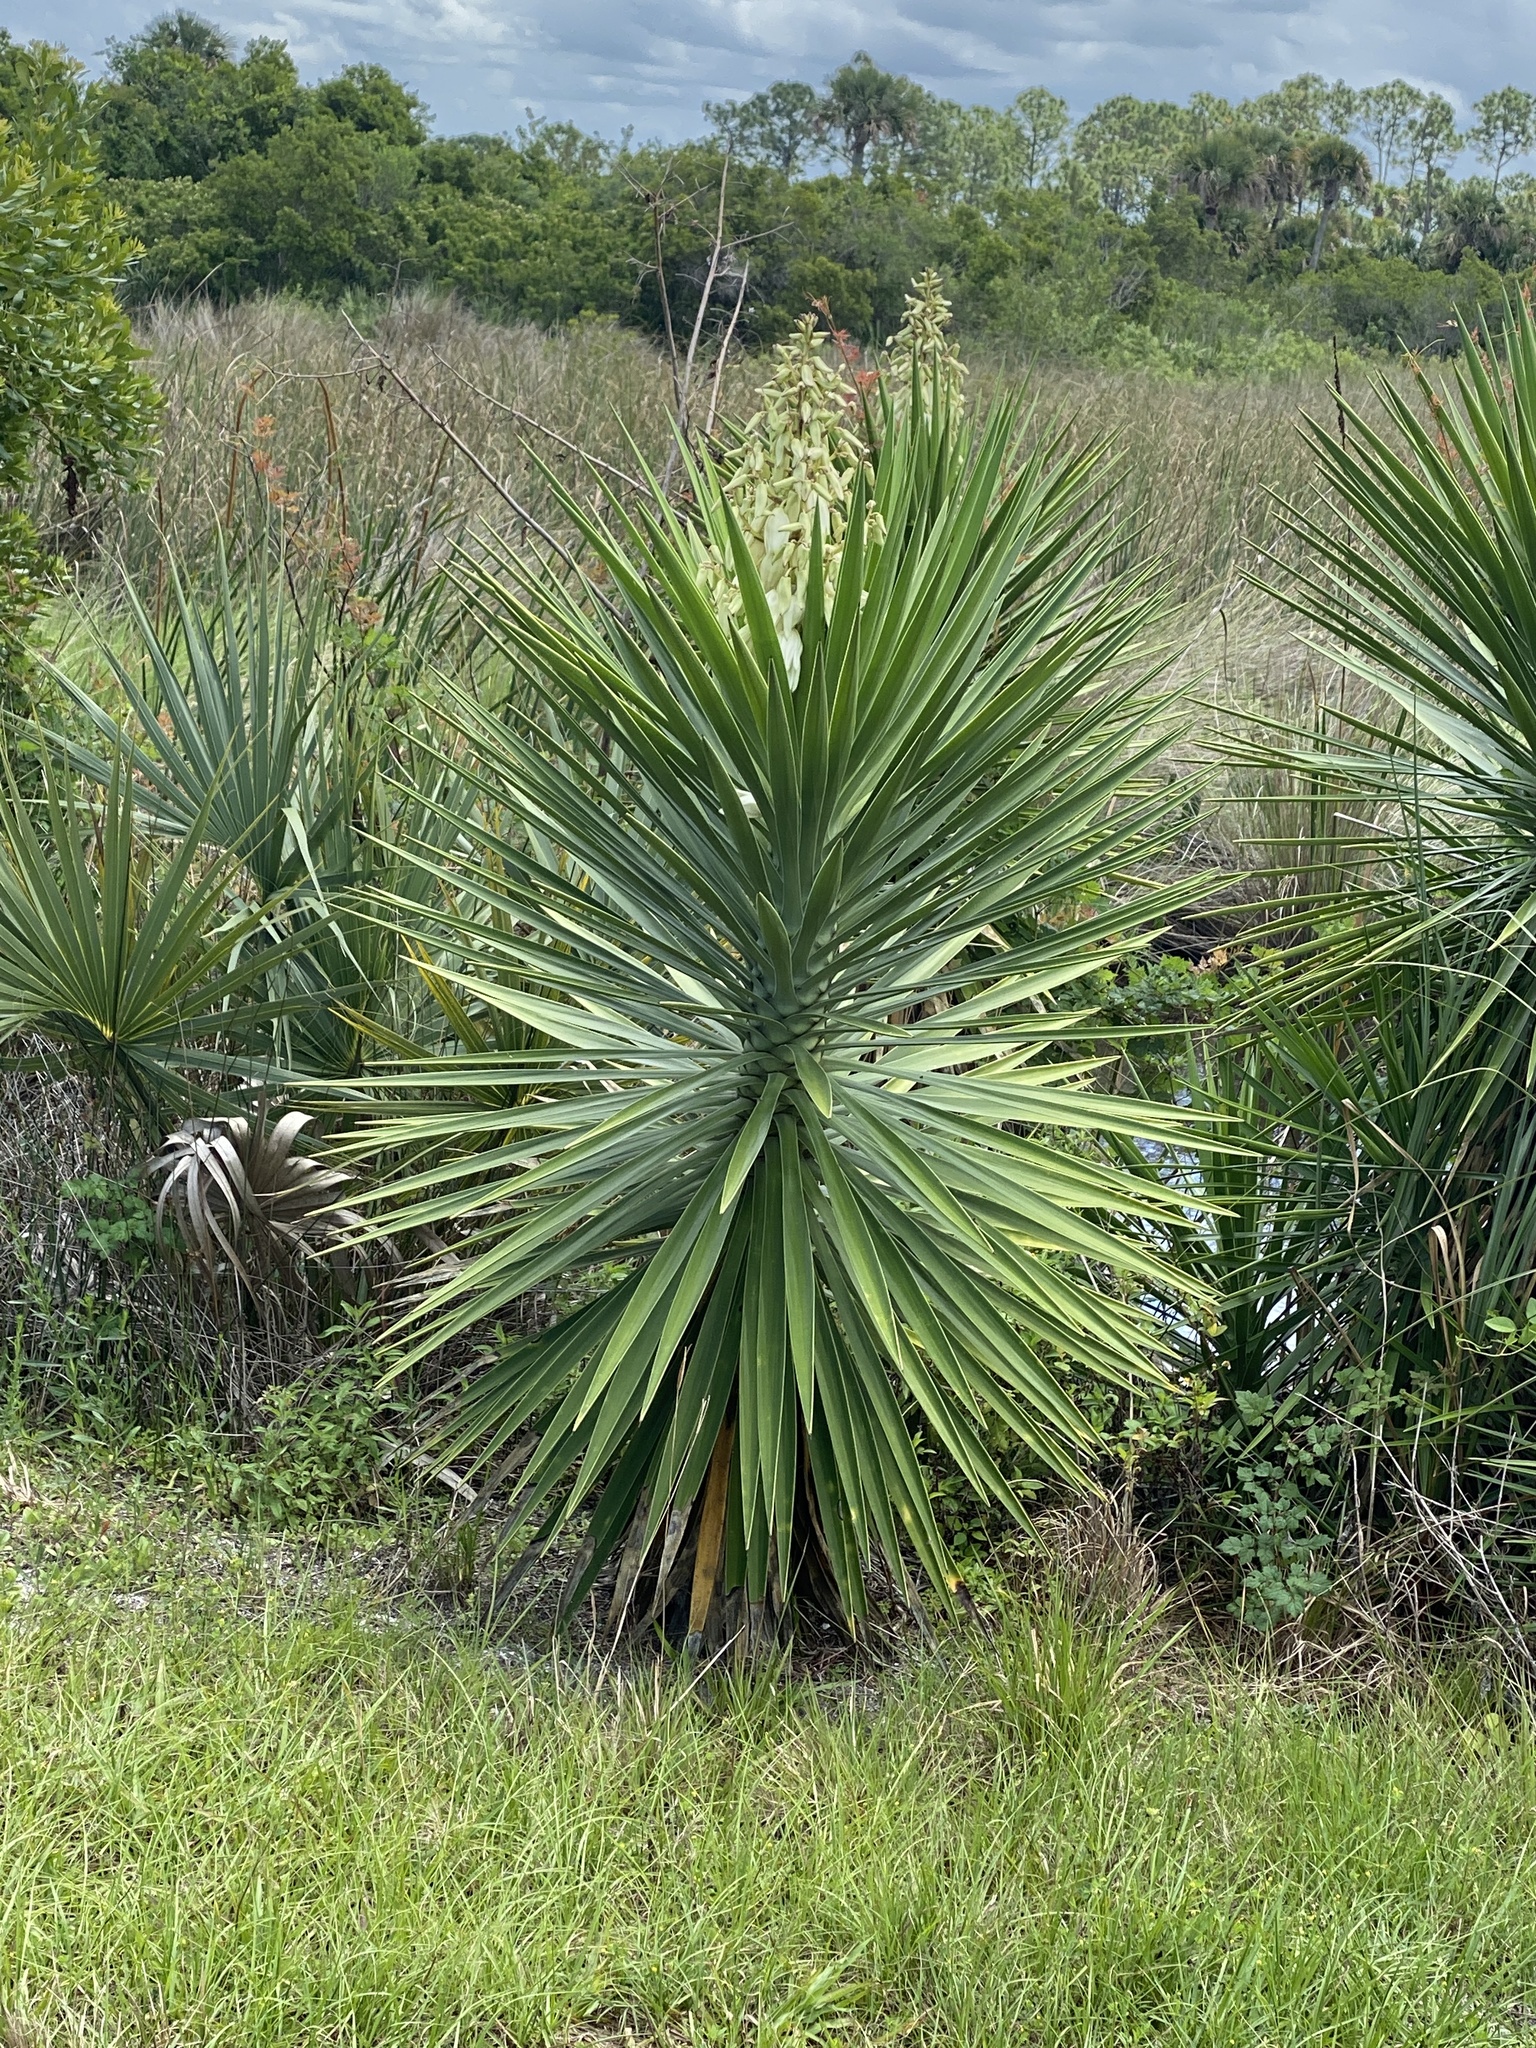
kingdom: Plantae
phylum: Tracheophyta
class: Liliopsida
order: Asparagales
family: Asparagaceae
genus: Yucca
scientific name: Yucca aloifolia
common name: Aloe yucca
